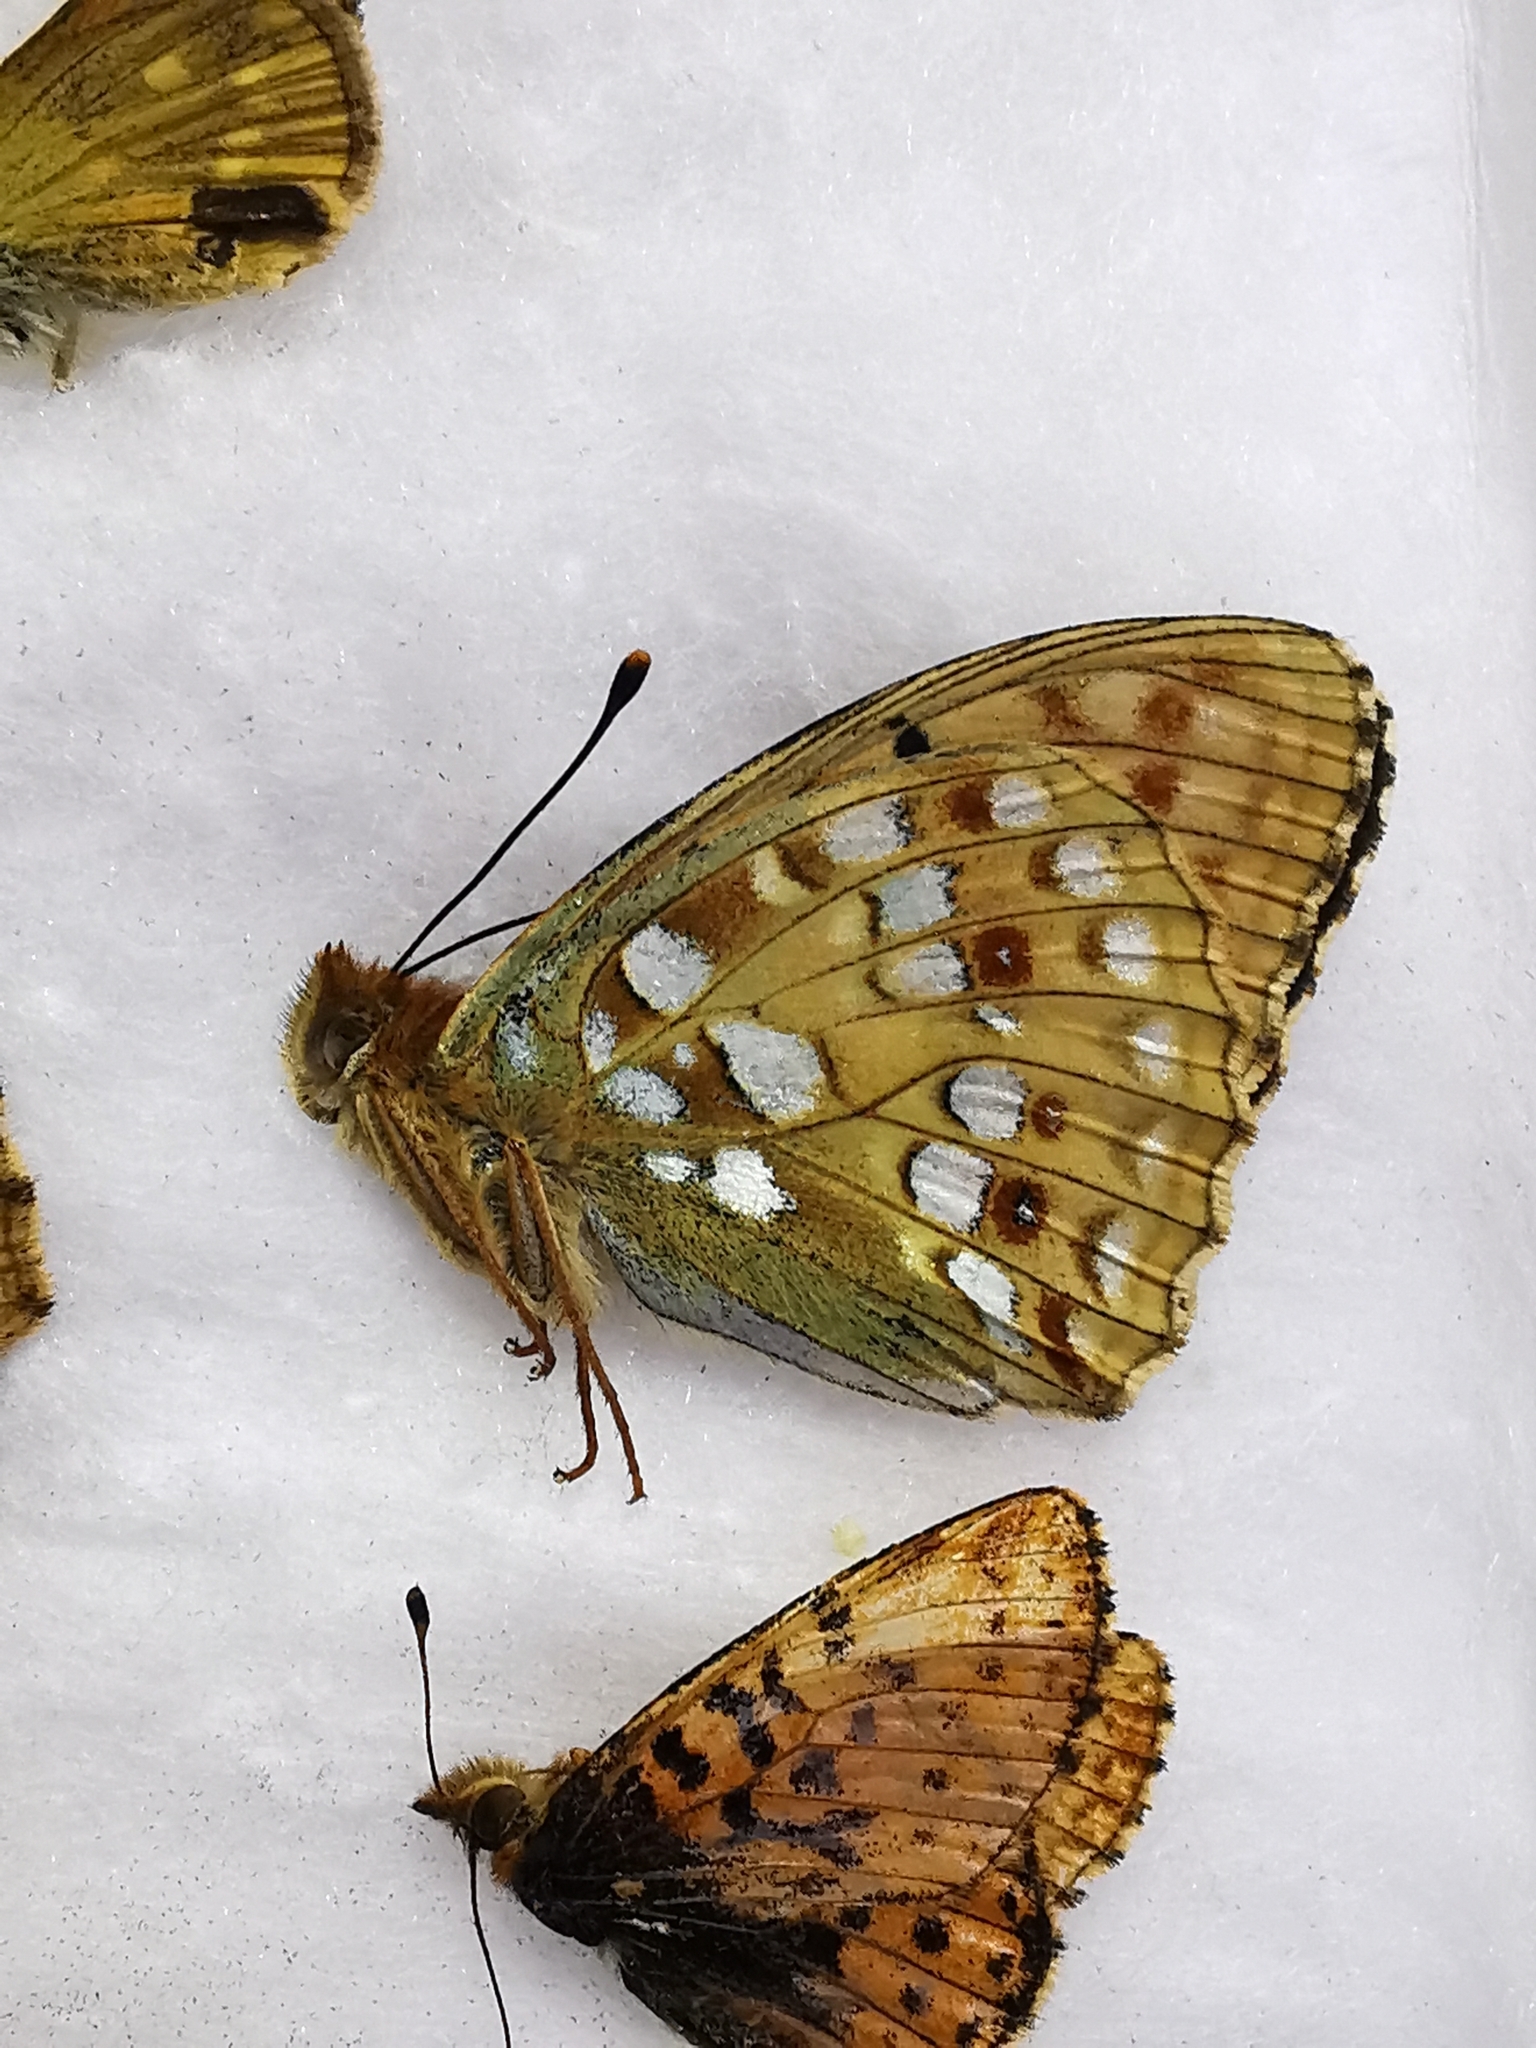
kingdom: Animalia
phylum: Arthropoda
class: Insecta
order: Lepidoptera
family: Nymphalidae
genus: Fabriciana
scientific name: Fabriciana adippe
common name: High brown fritillary
